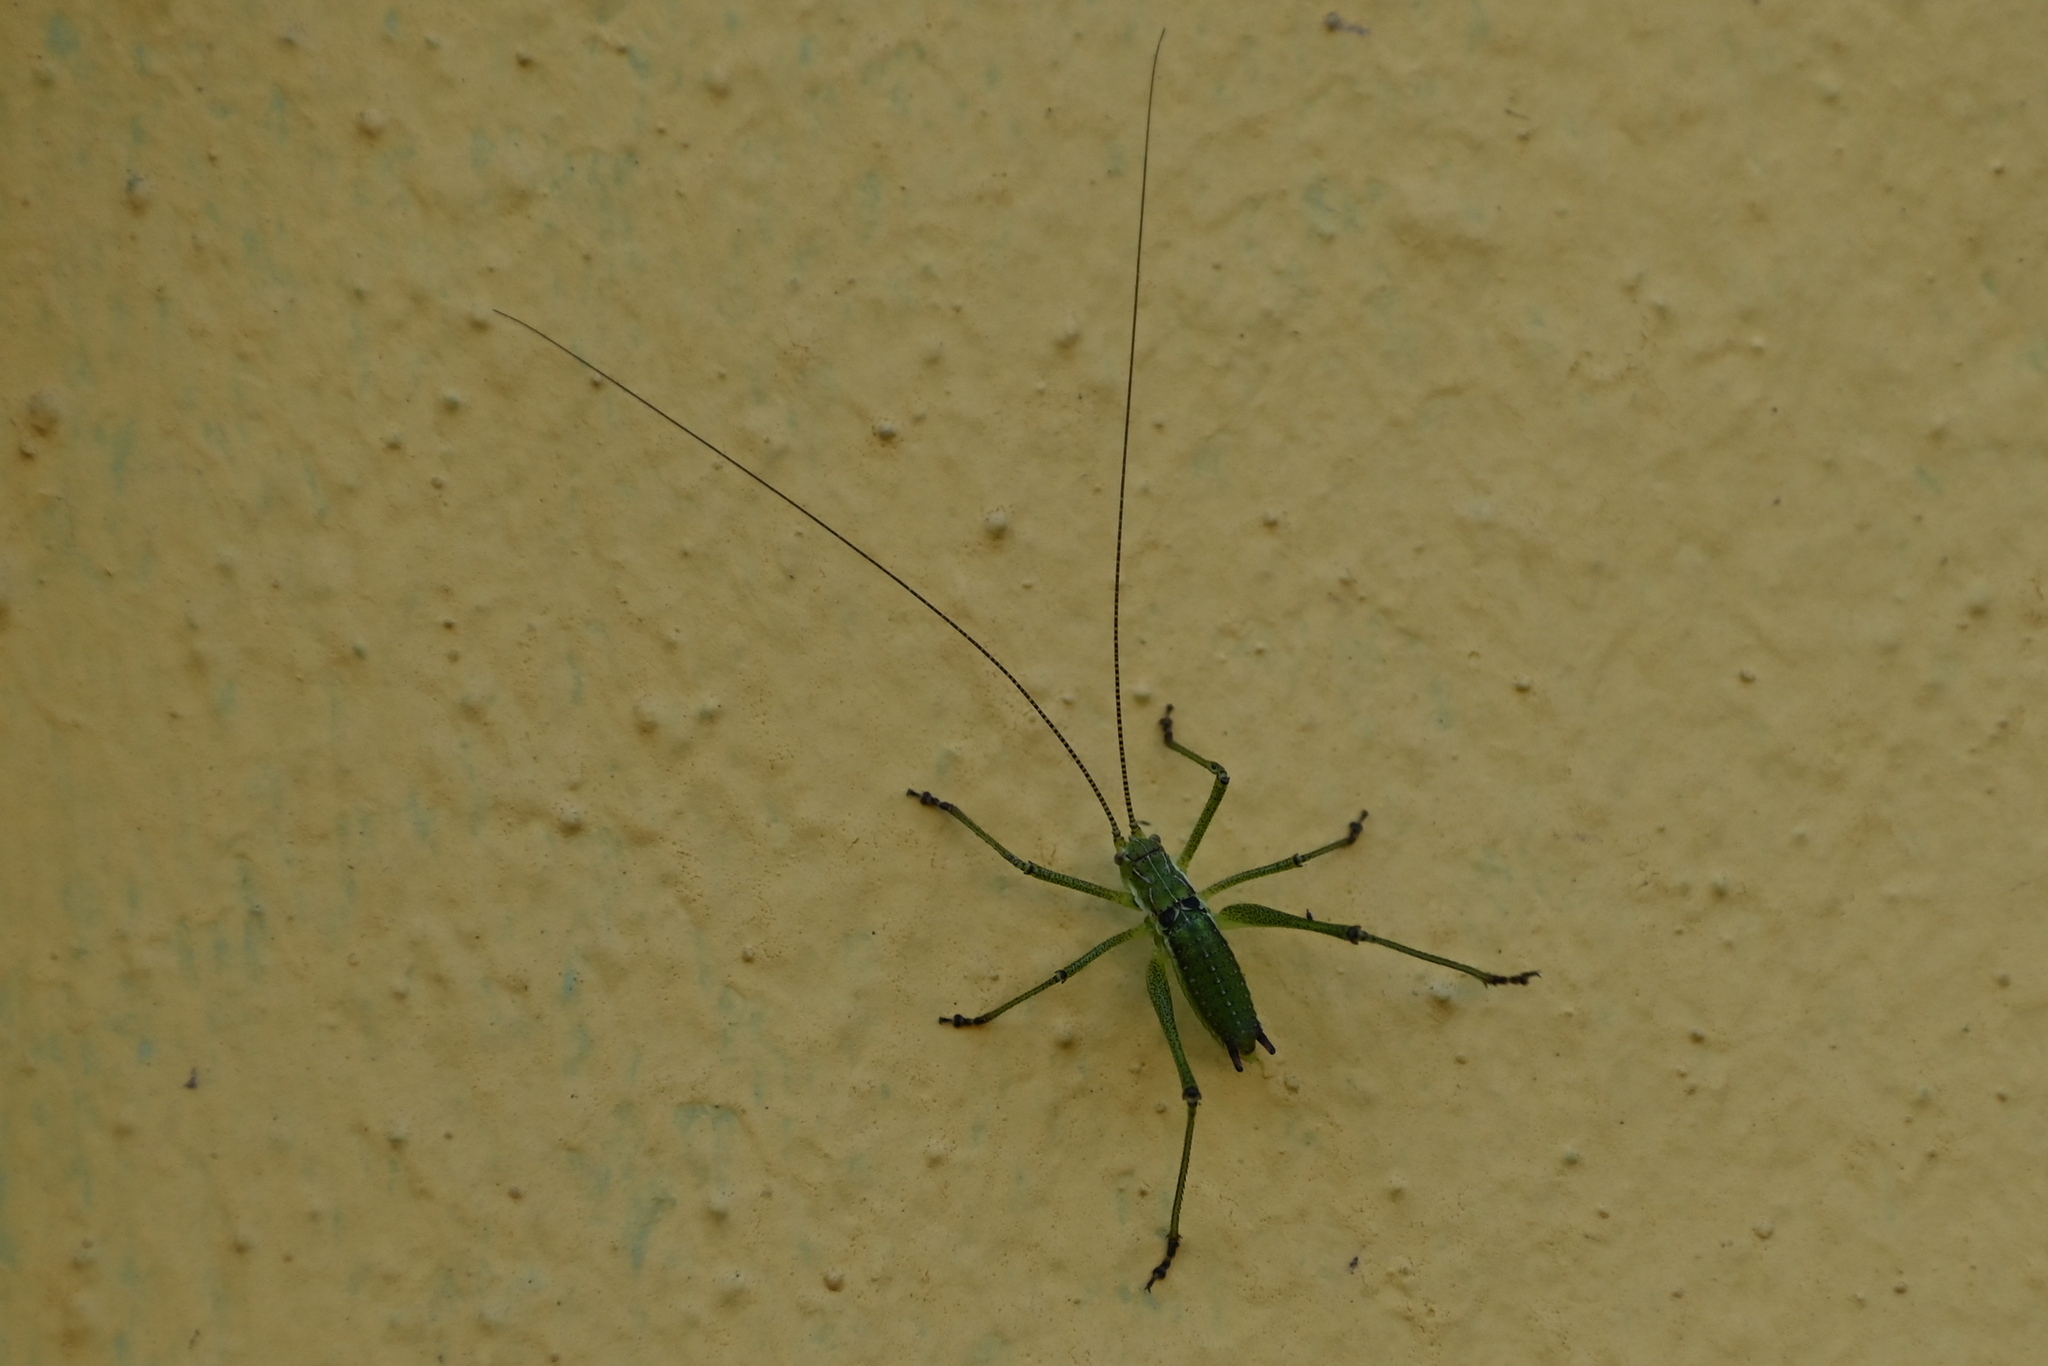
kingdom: Animalia
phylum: Arthropoda
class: Insecta
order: Orthoptera
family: Tettigoniidae
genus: Leptophyes
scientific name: Leptophyes albovittata
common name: Striped bush-cricket
